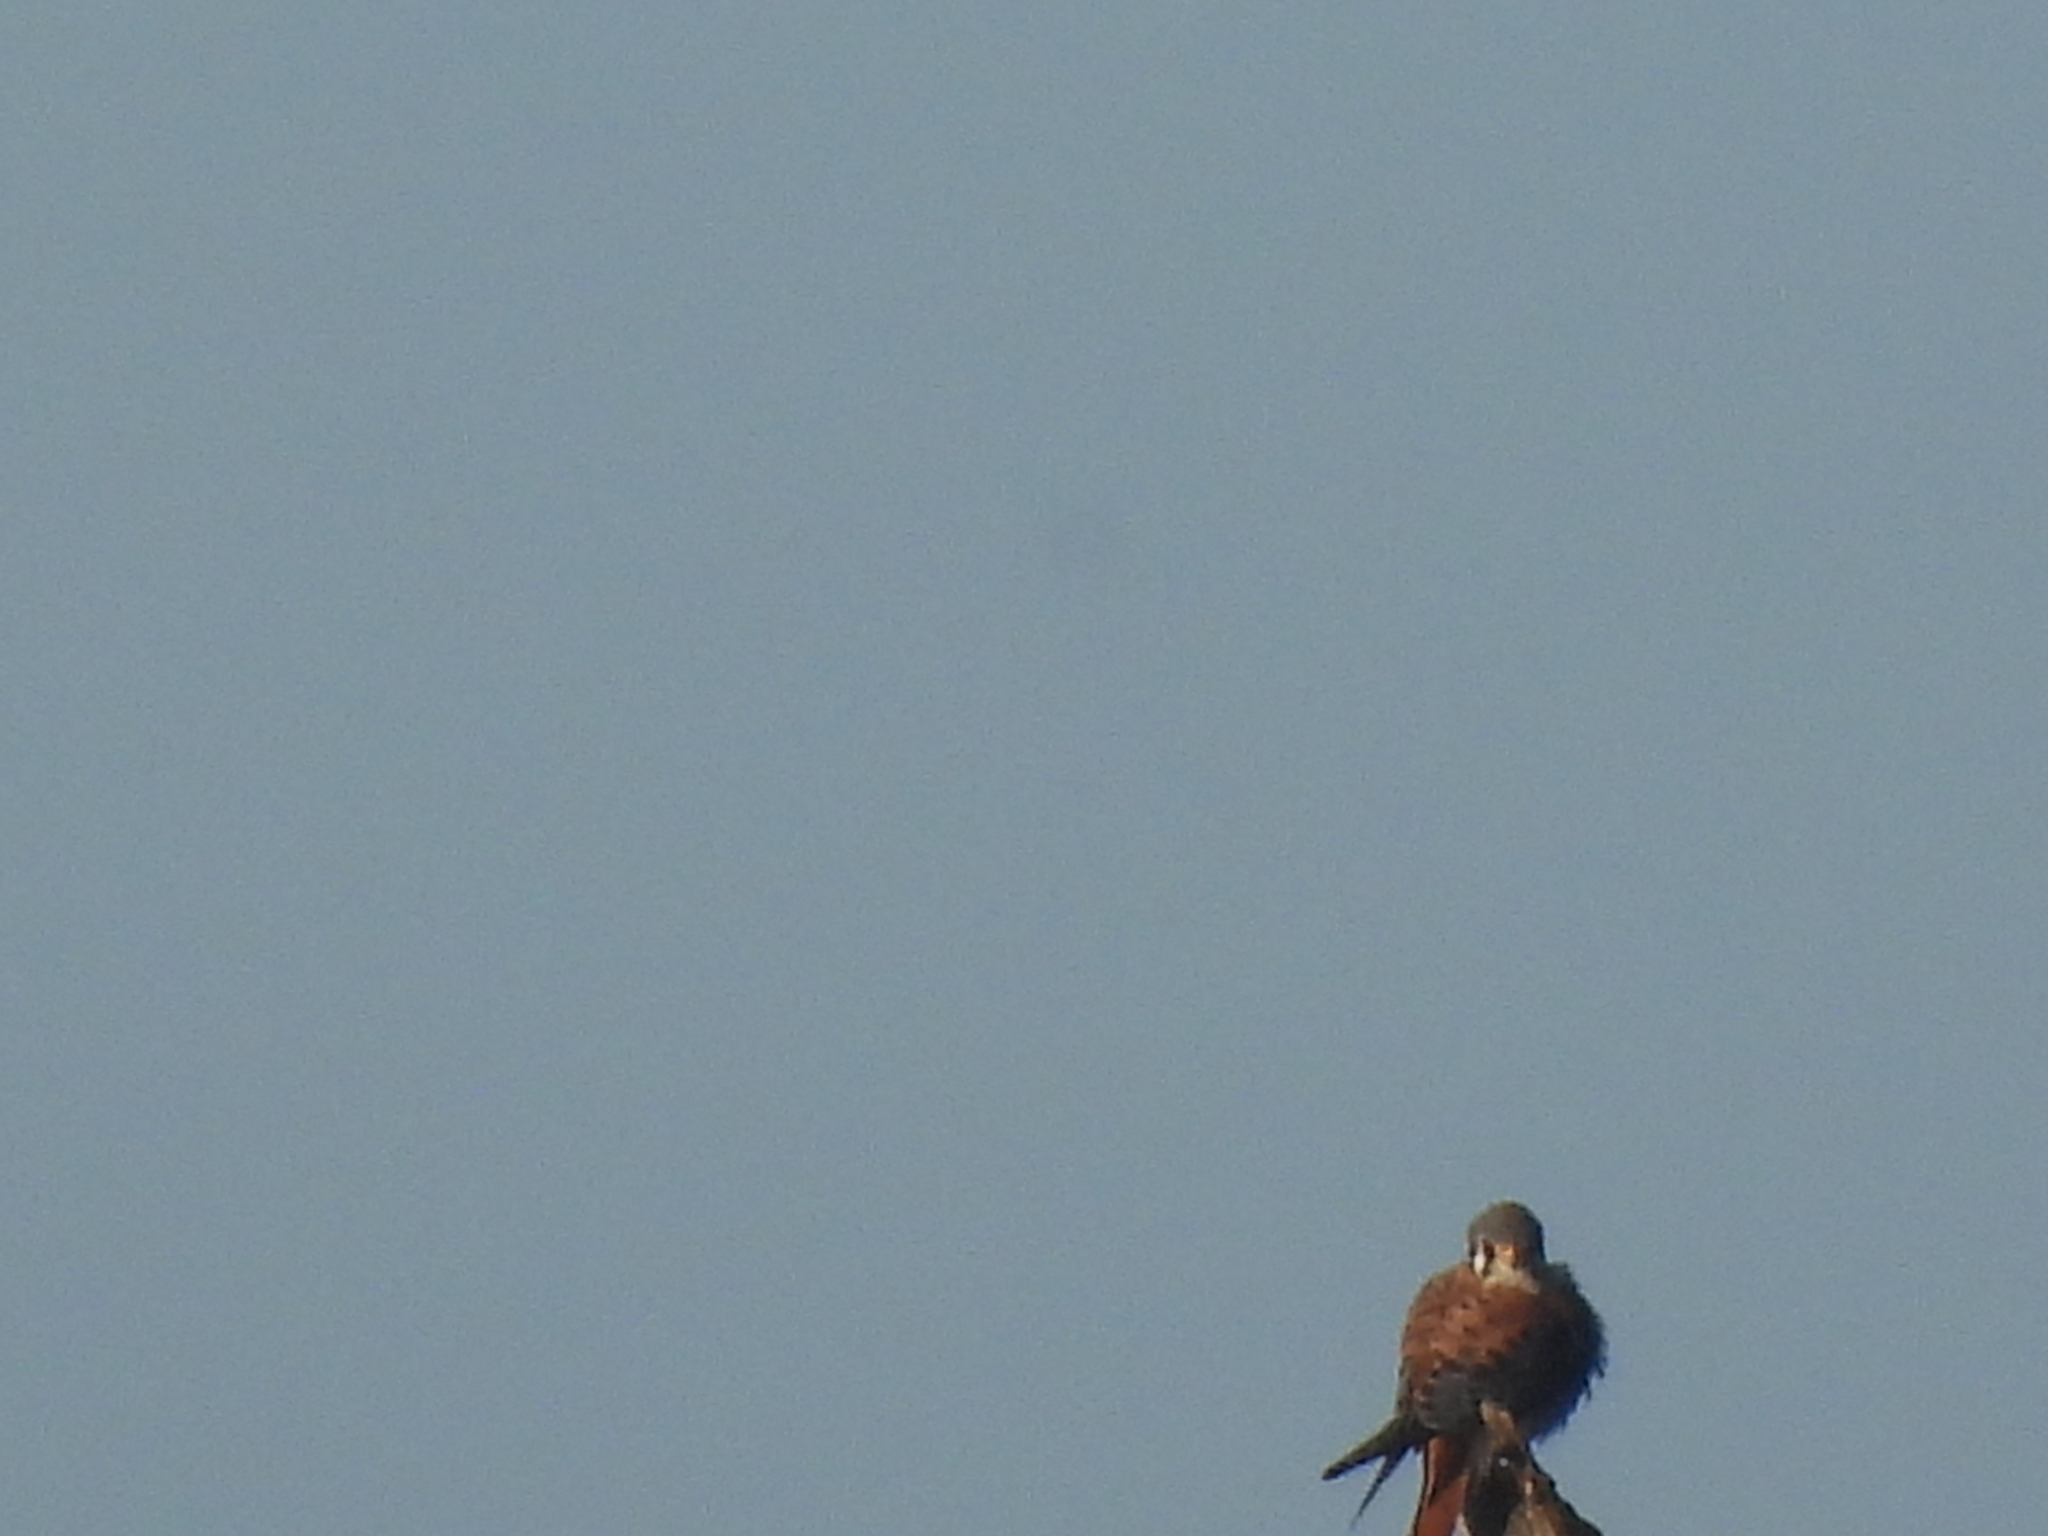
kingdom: Animalia
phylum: Chordata
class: Aves
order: Falconiformes
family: Falconidae
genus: Falco
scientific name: Falco sparverius
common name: American kestrel
